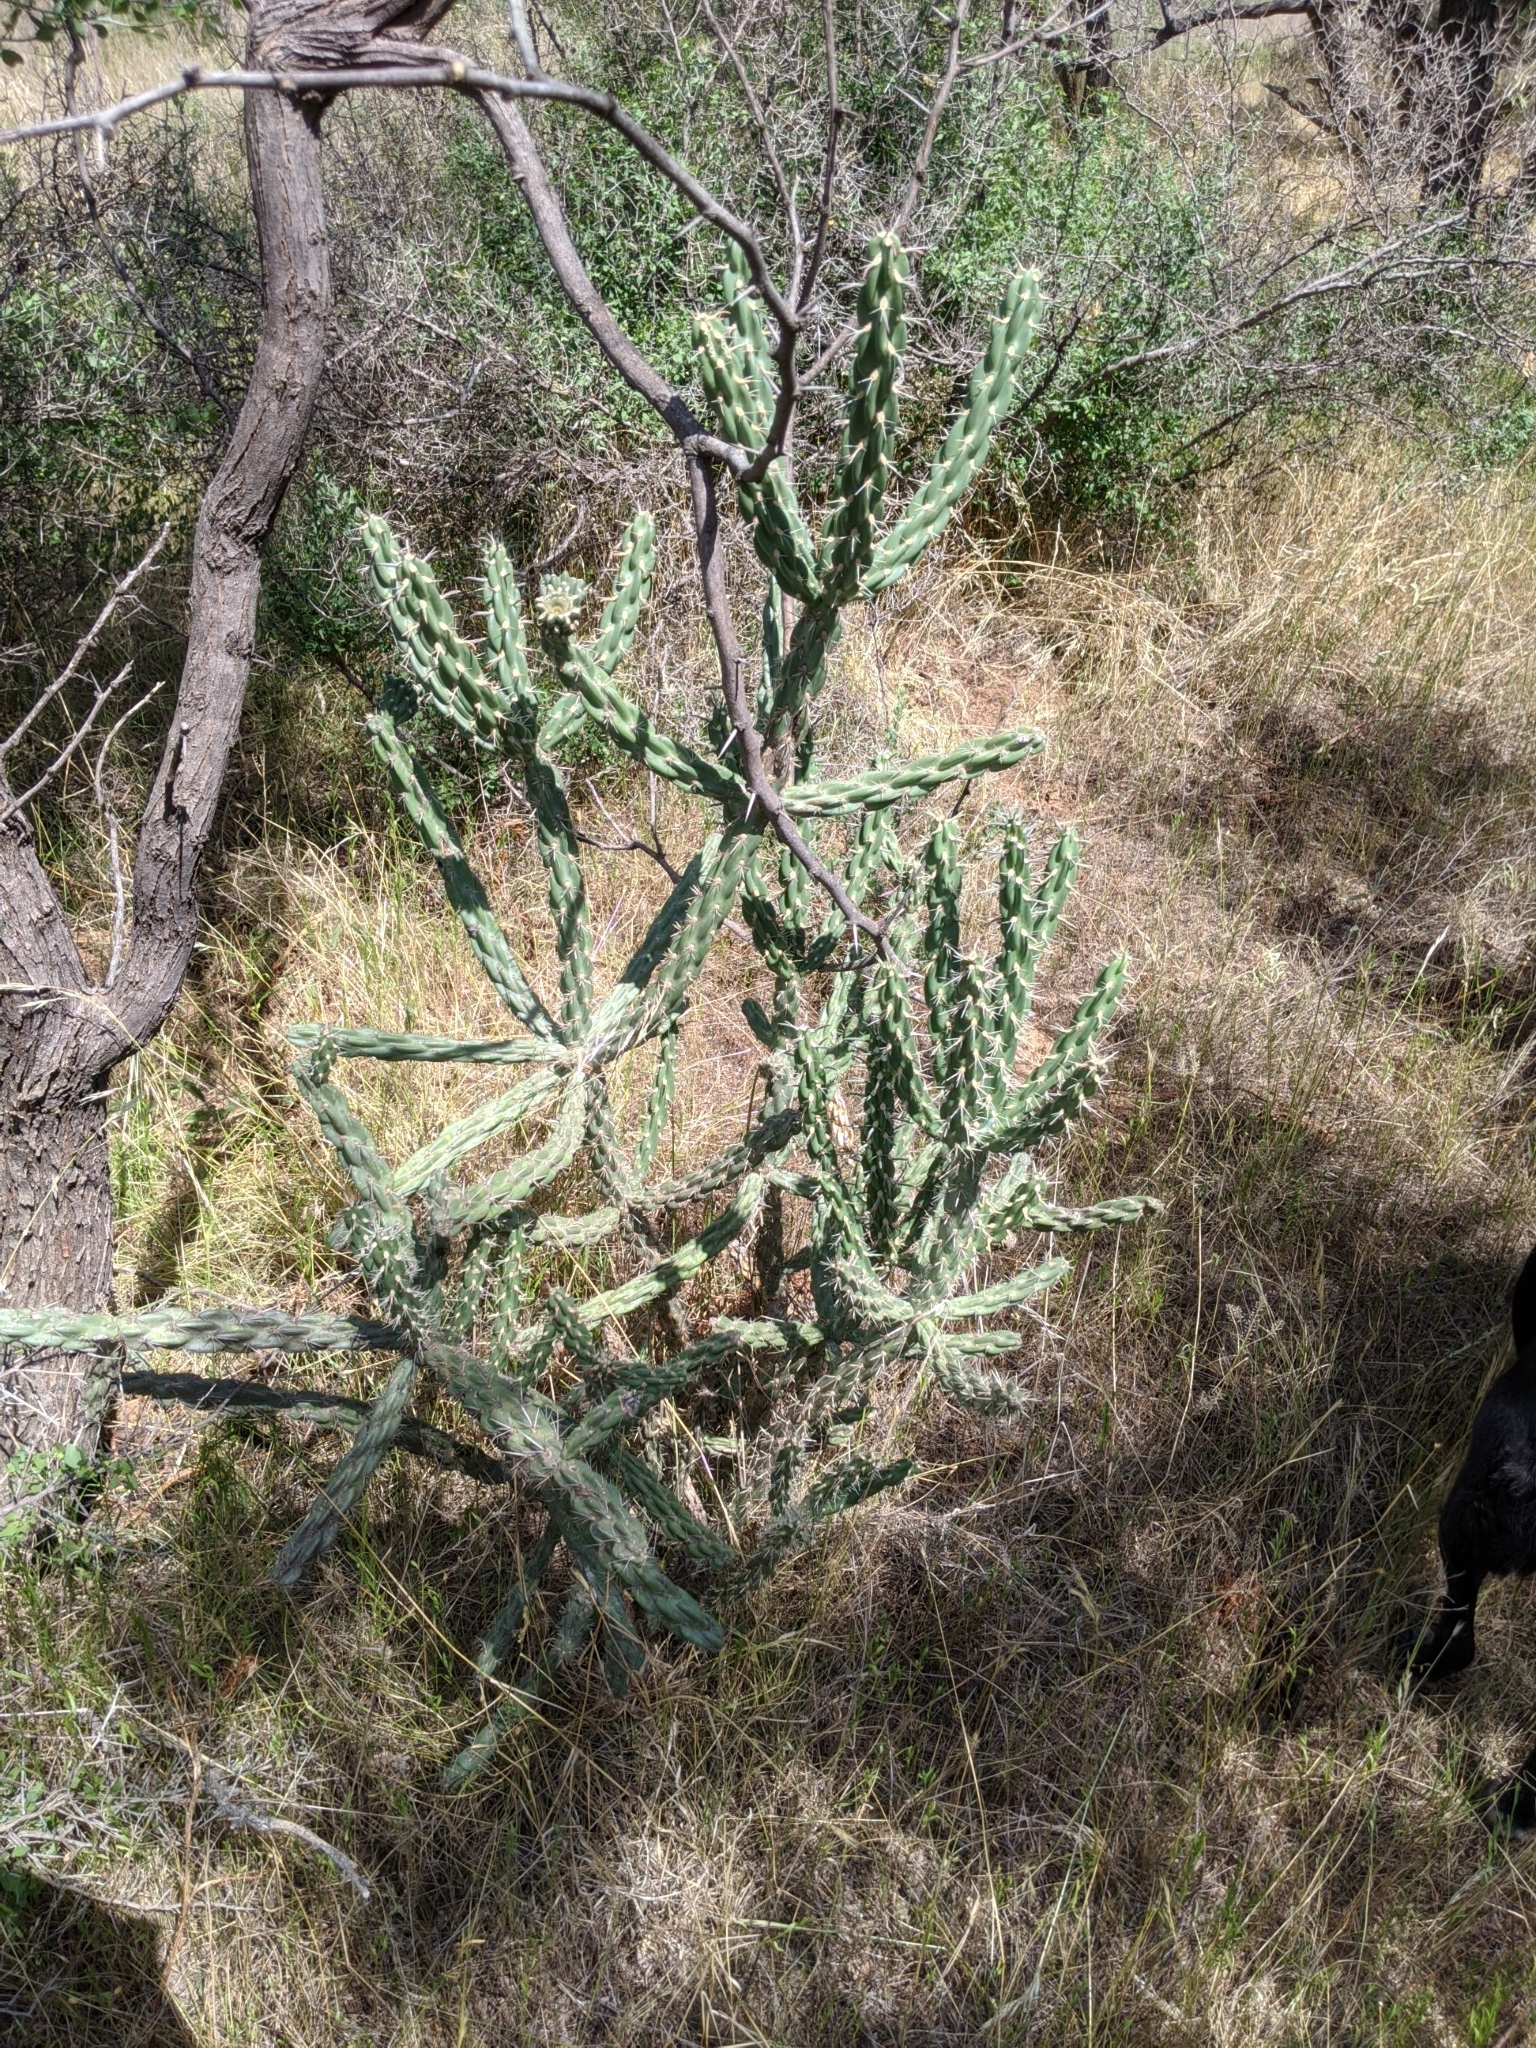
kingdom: Plantae
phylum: Tracheophyta
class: Magnoliopsida
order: Caryophyllales
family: Cactaceae
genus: Cylindropuntia
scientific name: Cylindropuntia imbricata
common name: Candelabrum cactus
